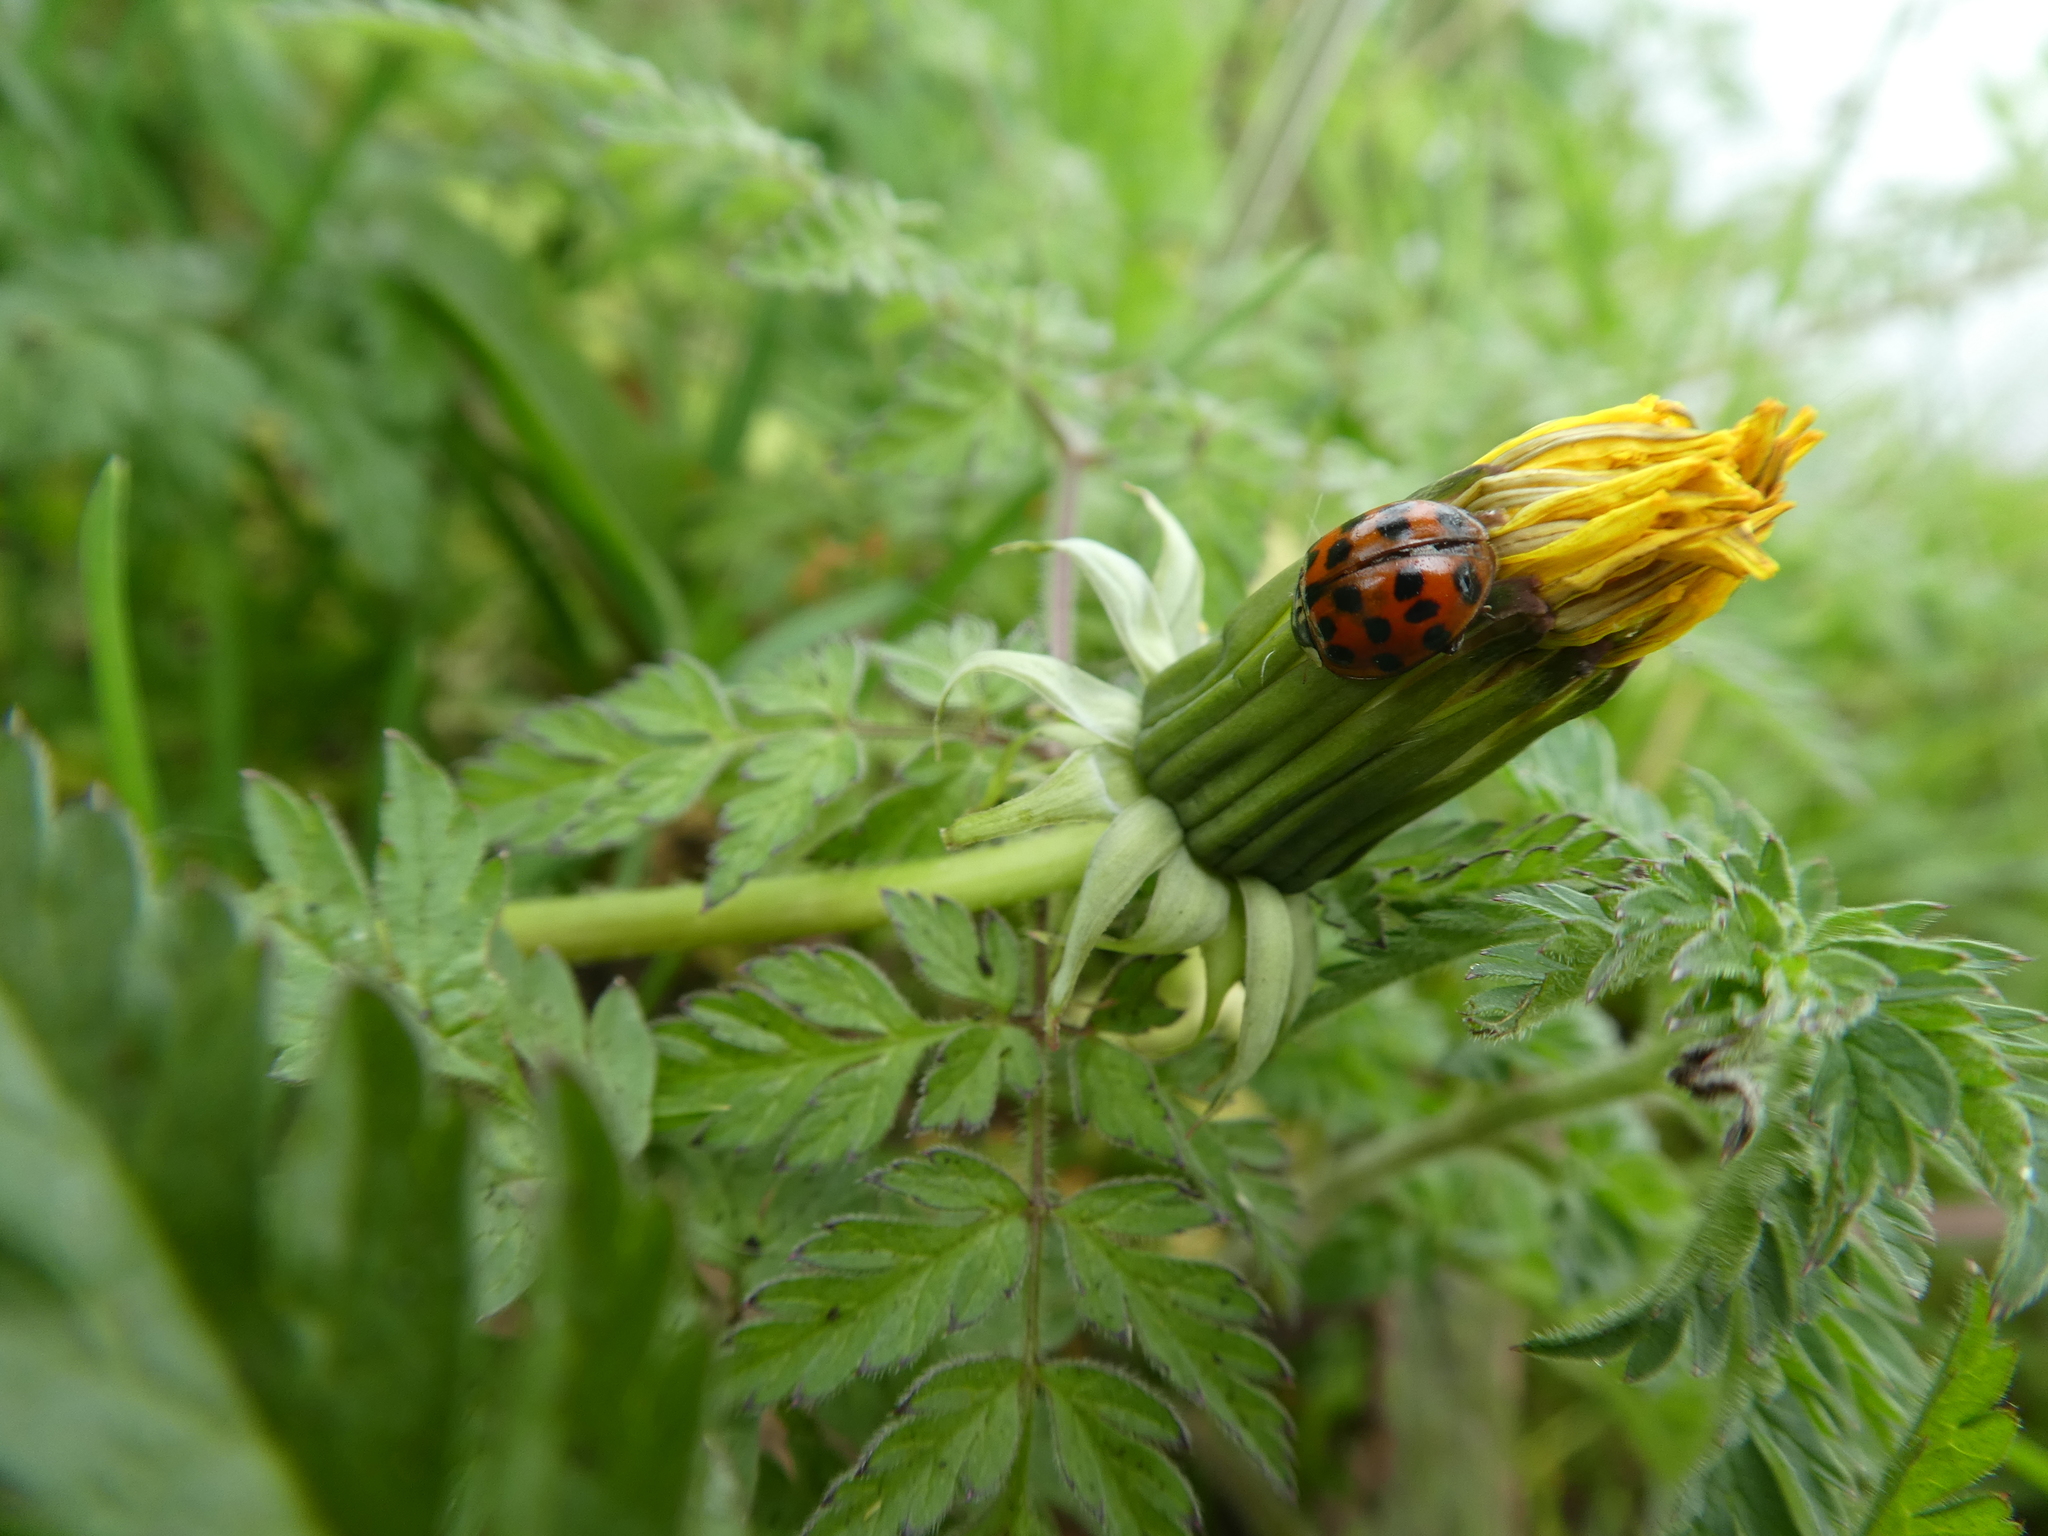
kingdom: Animalia
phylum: Arthropoda
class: Insecta
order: Coleoptera
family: Coccinellidae
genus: Harmonia
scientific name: Harmonia axyridis
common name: Harlequin ladybird
